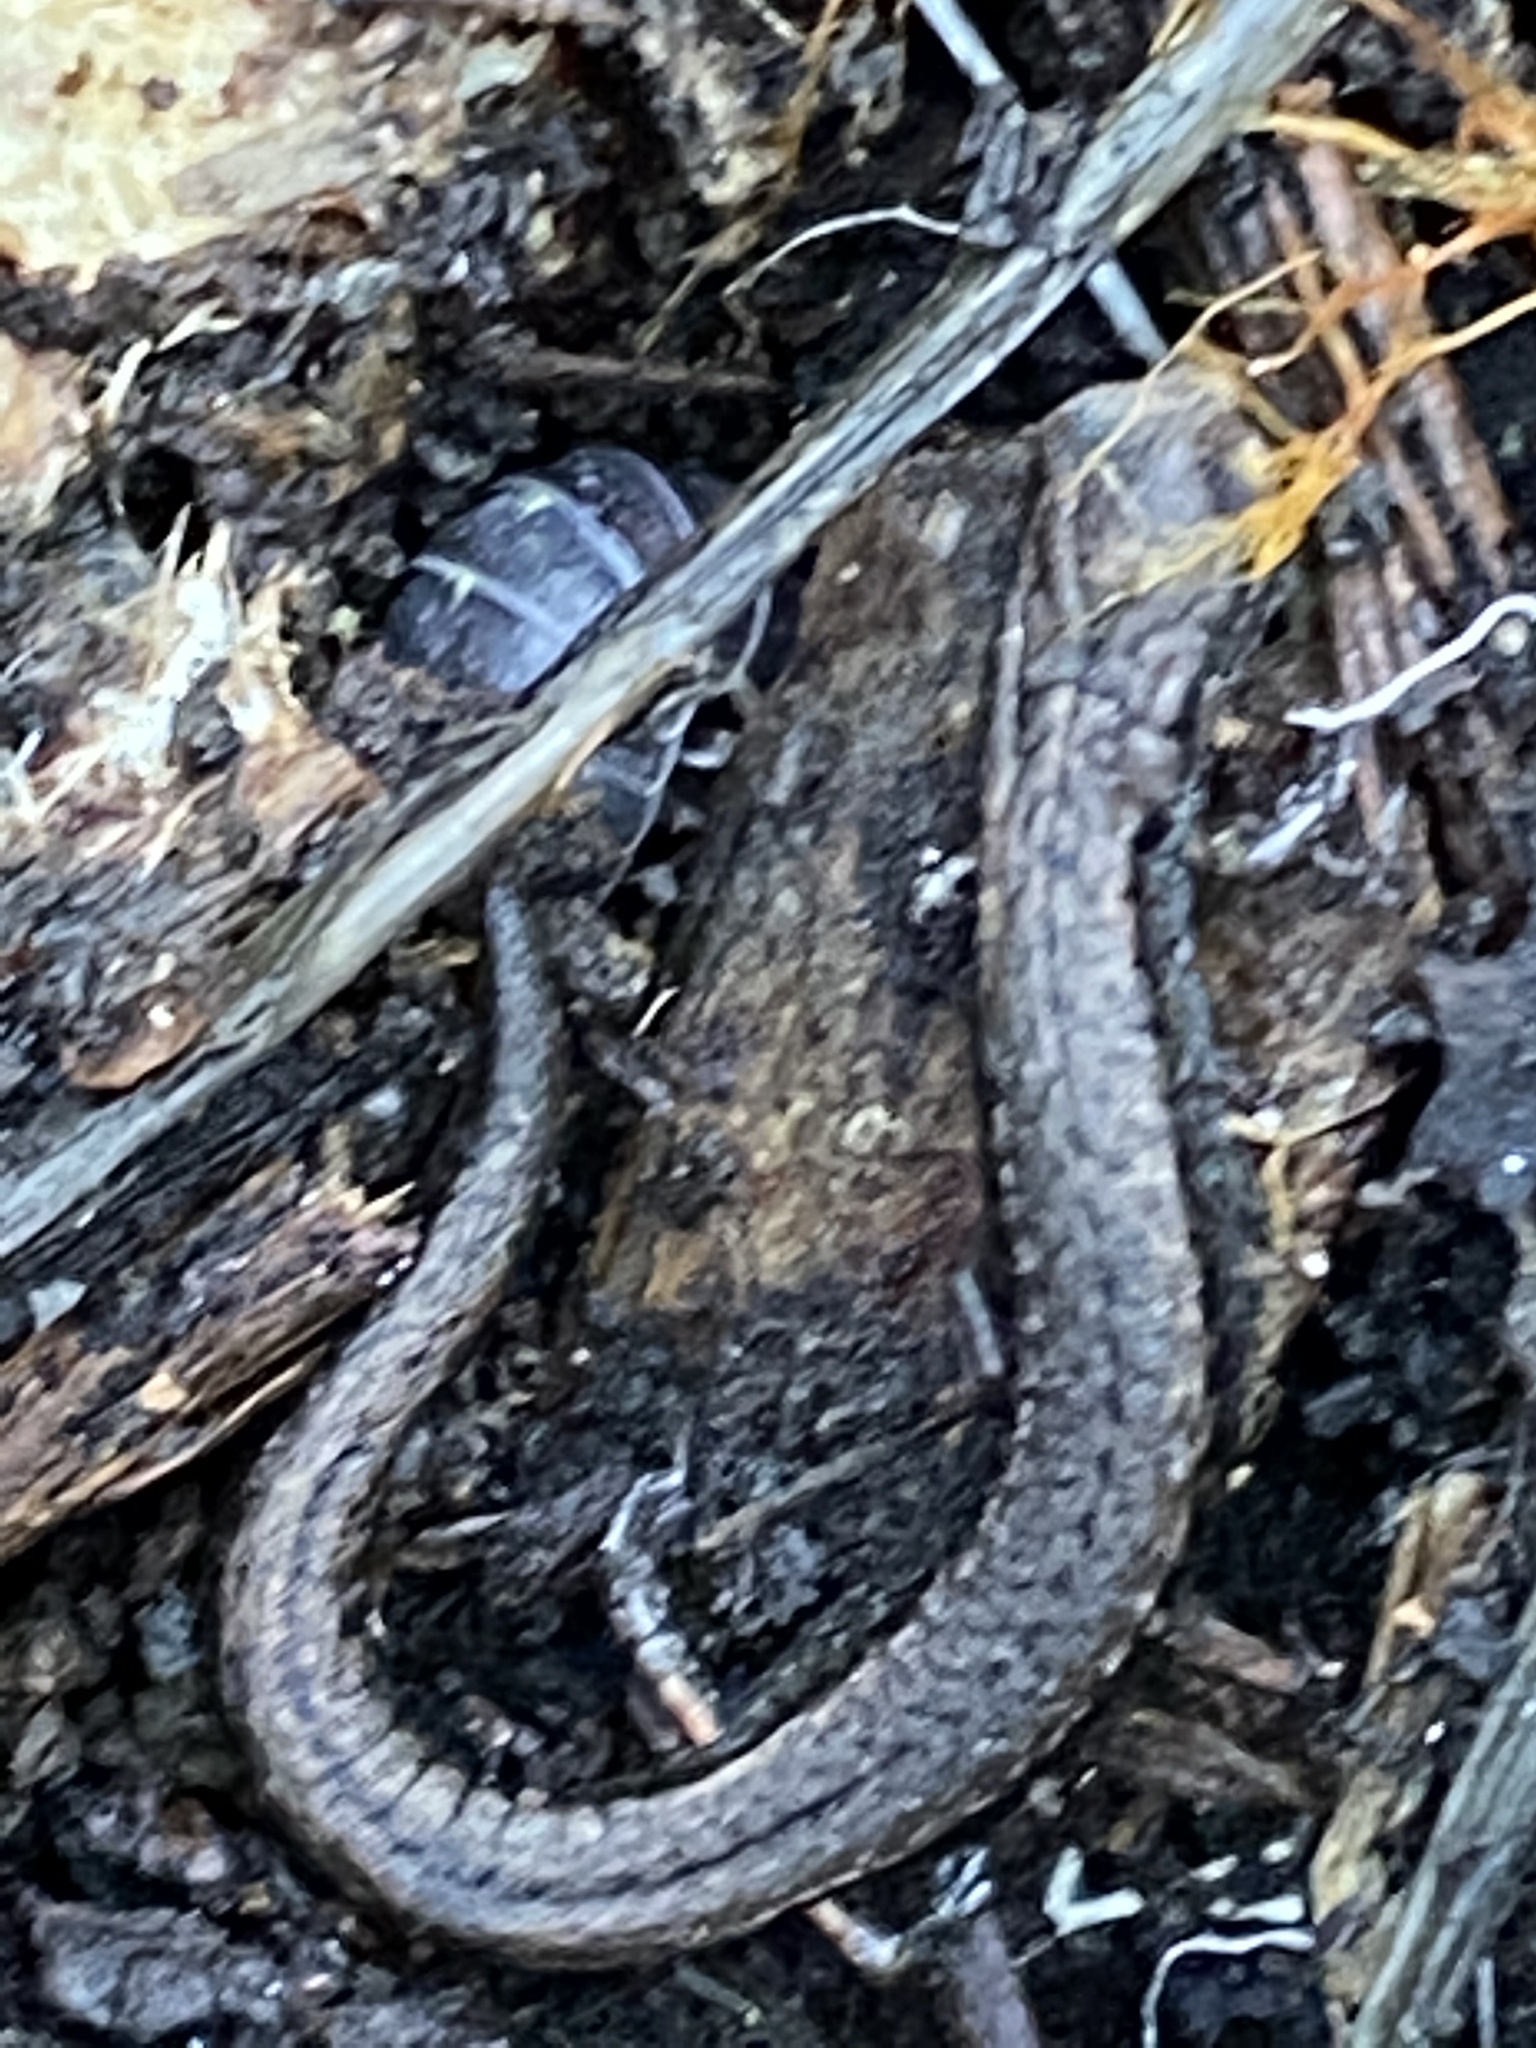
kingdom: Animalia
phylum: Chordata
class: Amphibia
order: Caudata
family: Plethodontidae
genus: Batrachoseps
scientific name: Batrachoseps attenuatus
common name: California slender salamander
